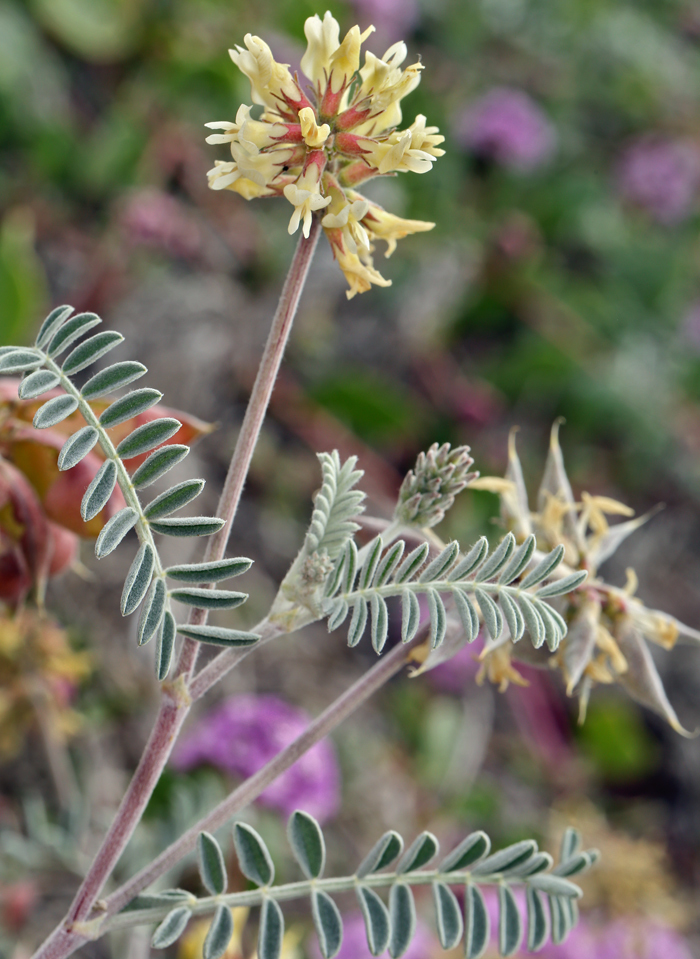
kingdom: Plantae
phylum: Tracheophyta
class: Magnoliopsida
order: Fabales
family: Fabaceae
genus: Astragalus
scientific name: Astragalus miguelensis
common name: San miguel milk-vetch
